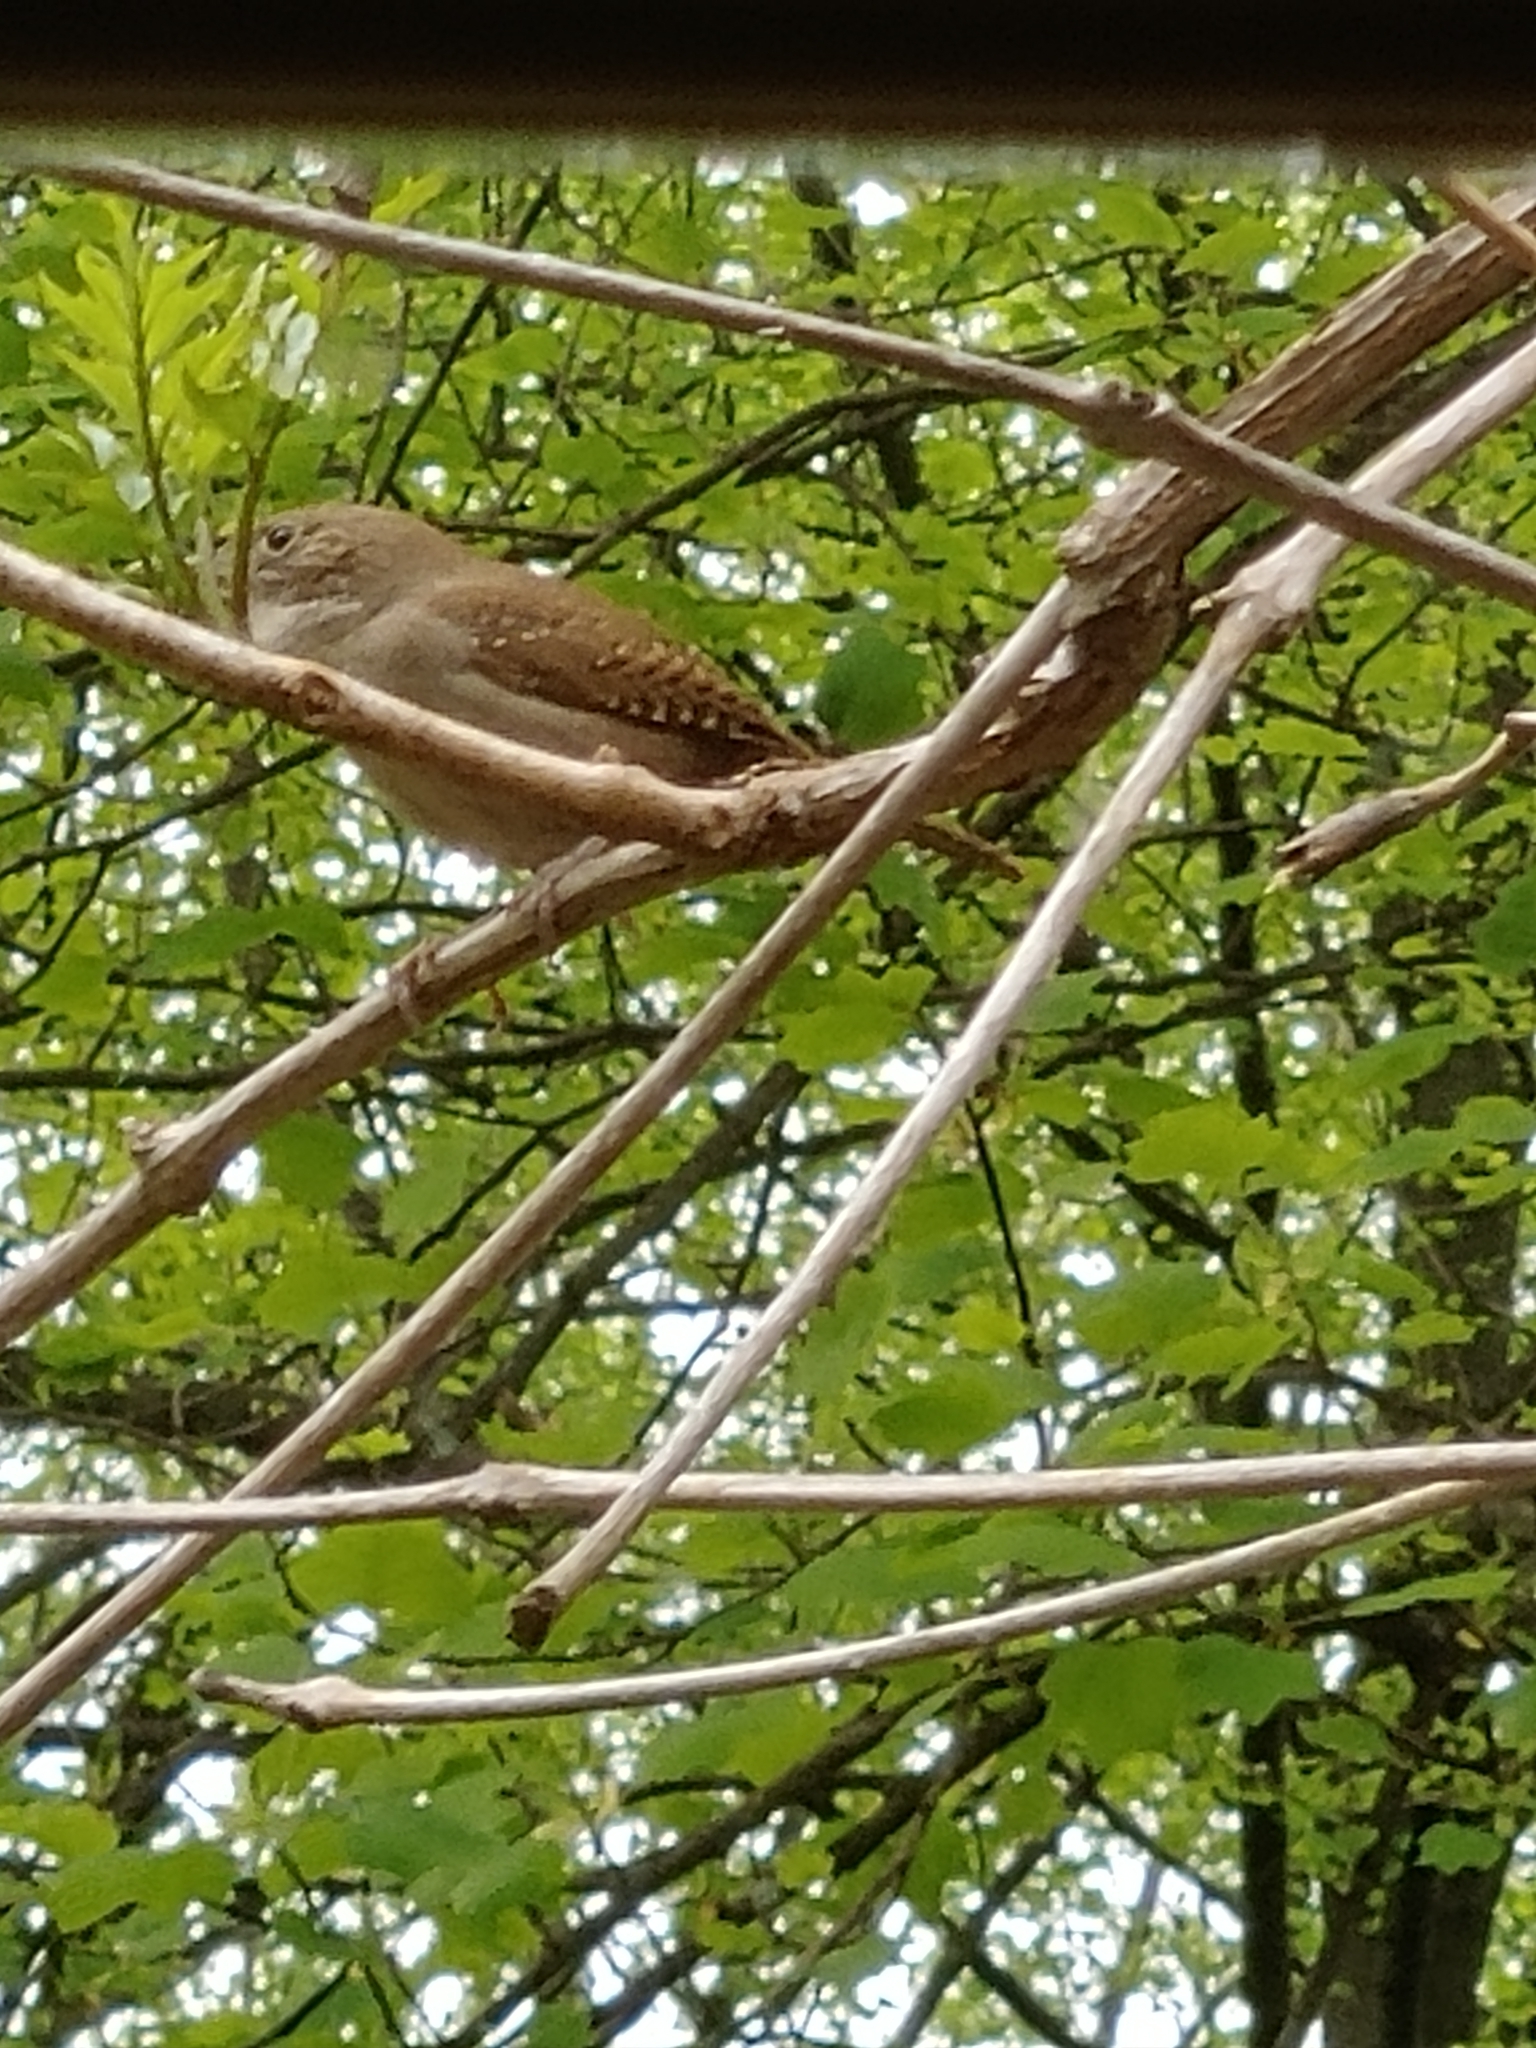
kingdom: Animalia
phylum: Chordata
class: Aves
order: Passeriformes
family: Troglodytidae
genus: Troglodytes
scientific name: Troglodytes aedon
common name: House wren
